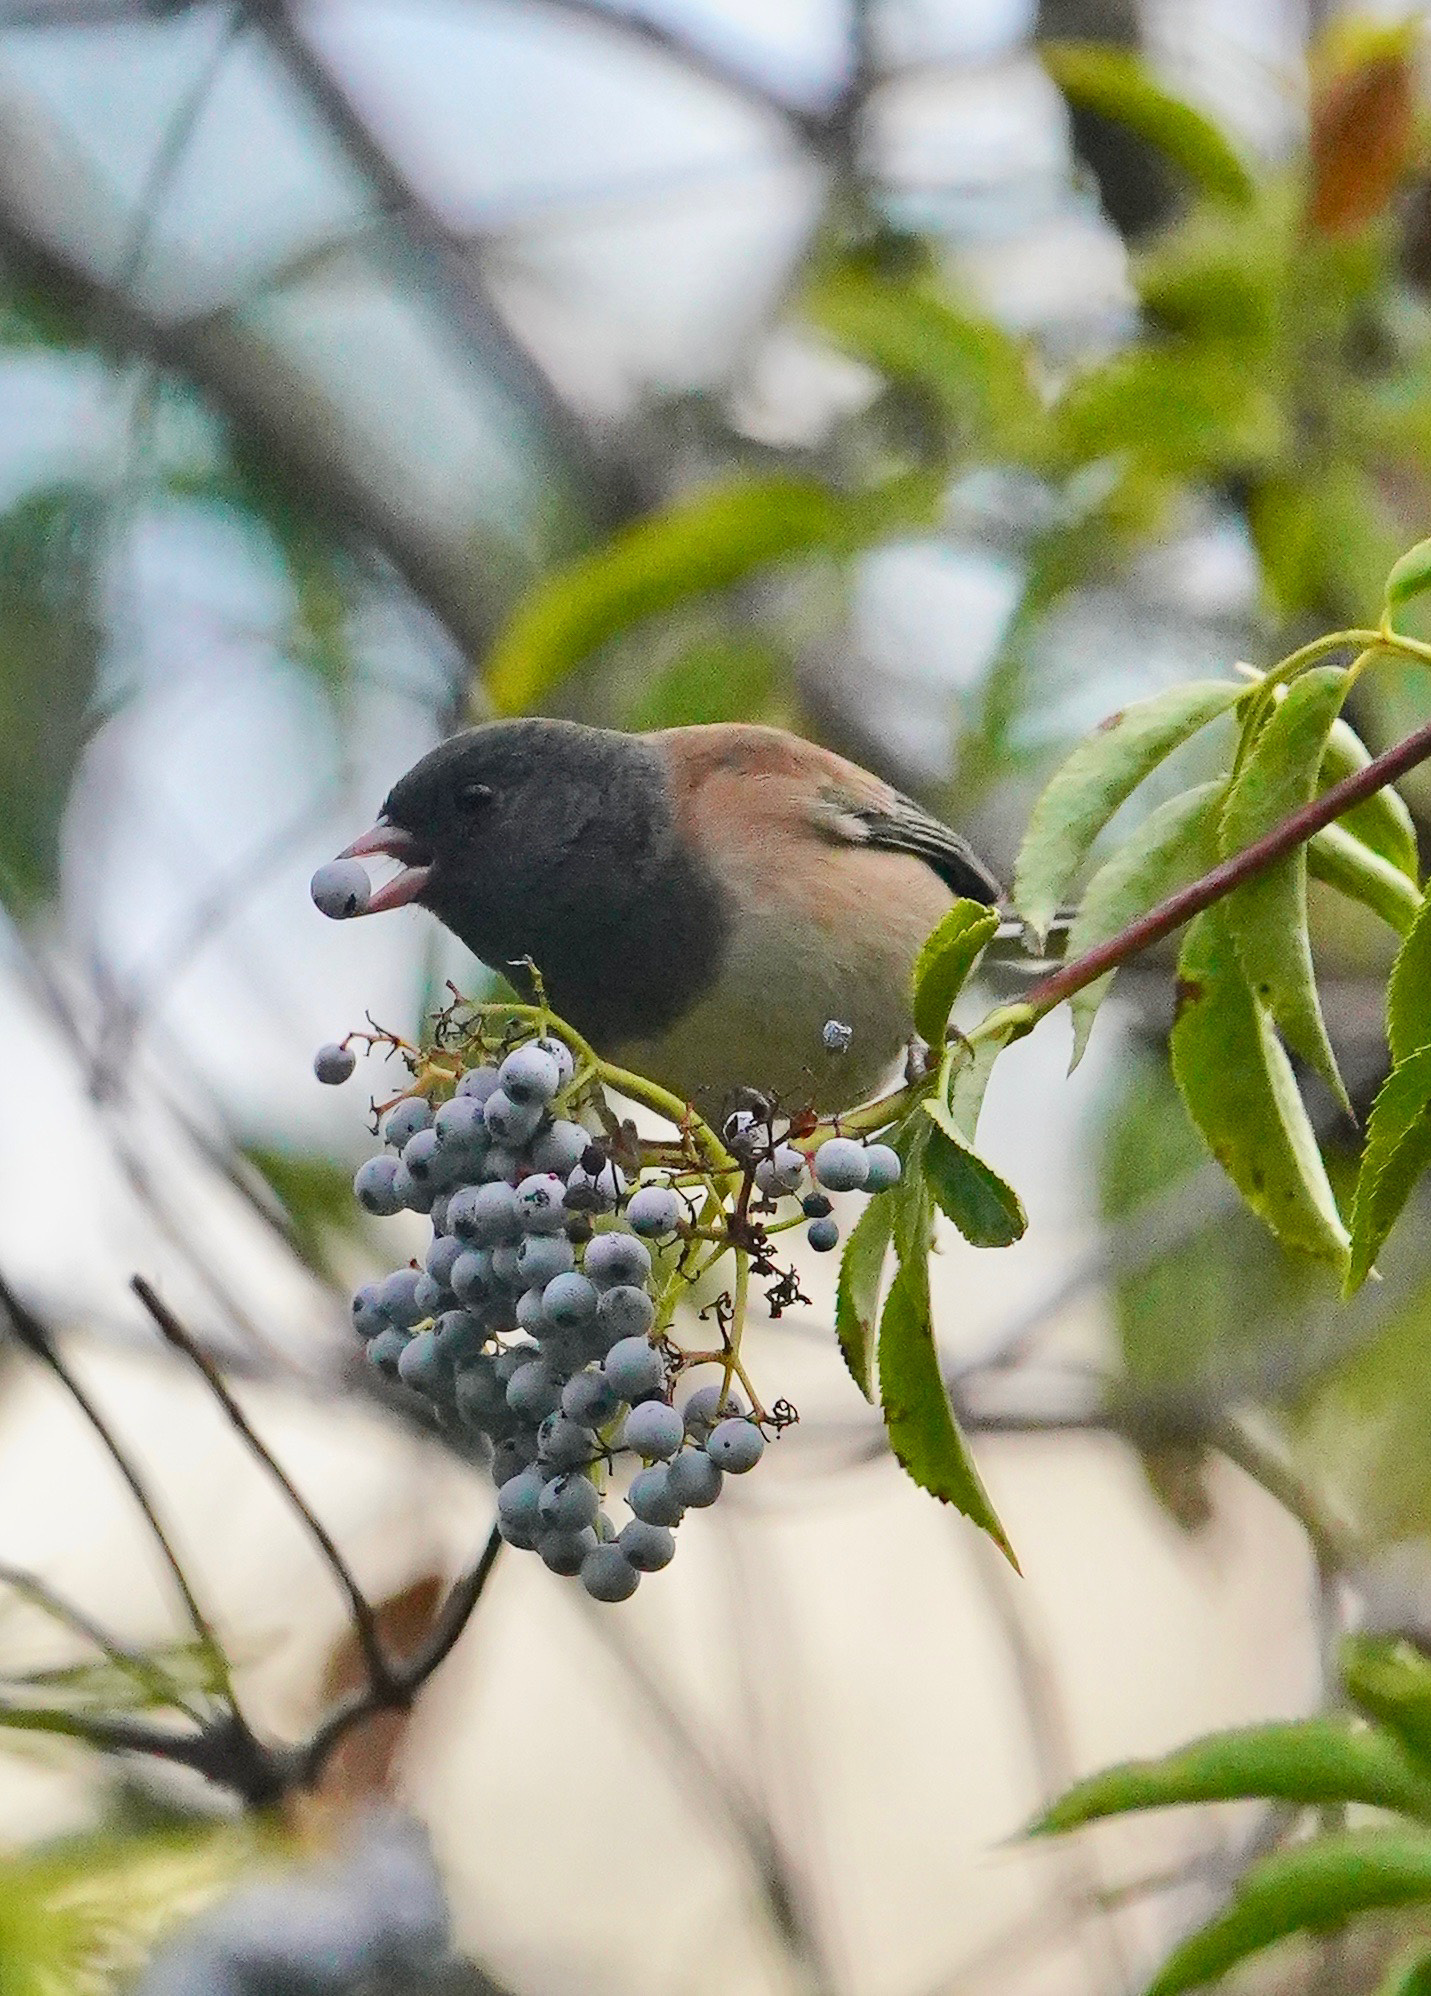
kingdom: Animalia
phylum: Chordata
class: Aves
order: Passeriformes
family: Passerellidae
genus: Junco
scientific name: Junco hyemalis
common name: Dark-eyed junco
